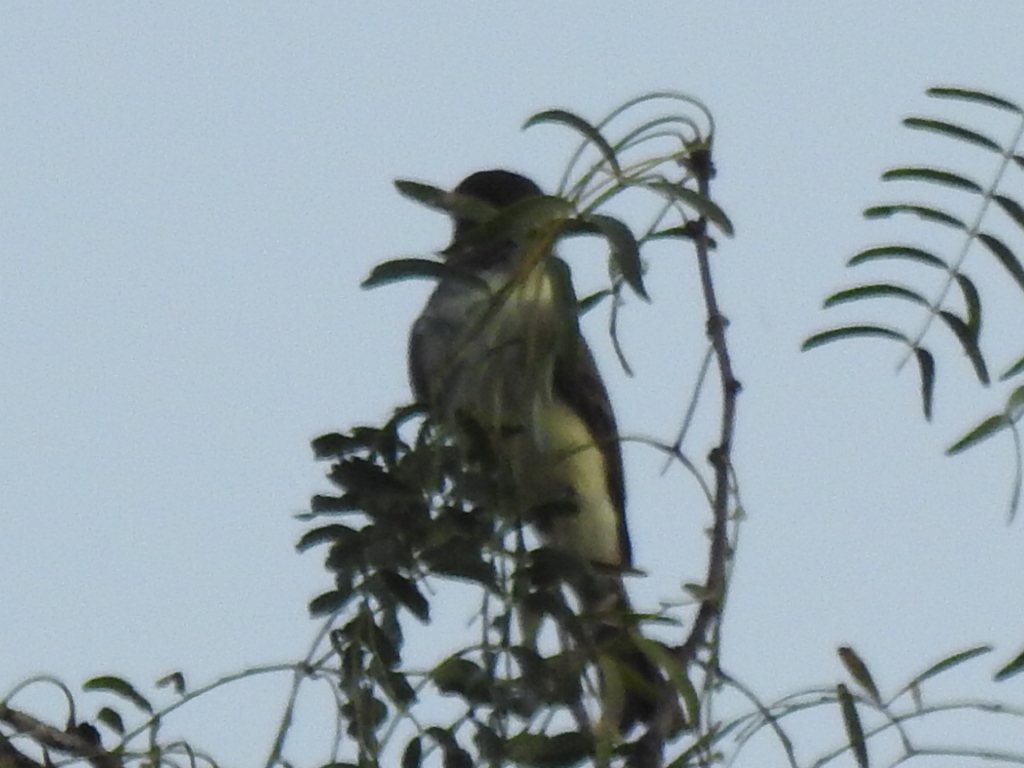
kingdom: Animalia
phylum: Chordata
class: Aves
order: Passeriformes
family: Tyrannidae
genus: Sayornis
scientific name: Sayornis phoebe
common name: Eastern phoebe
